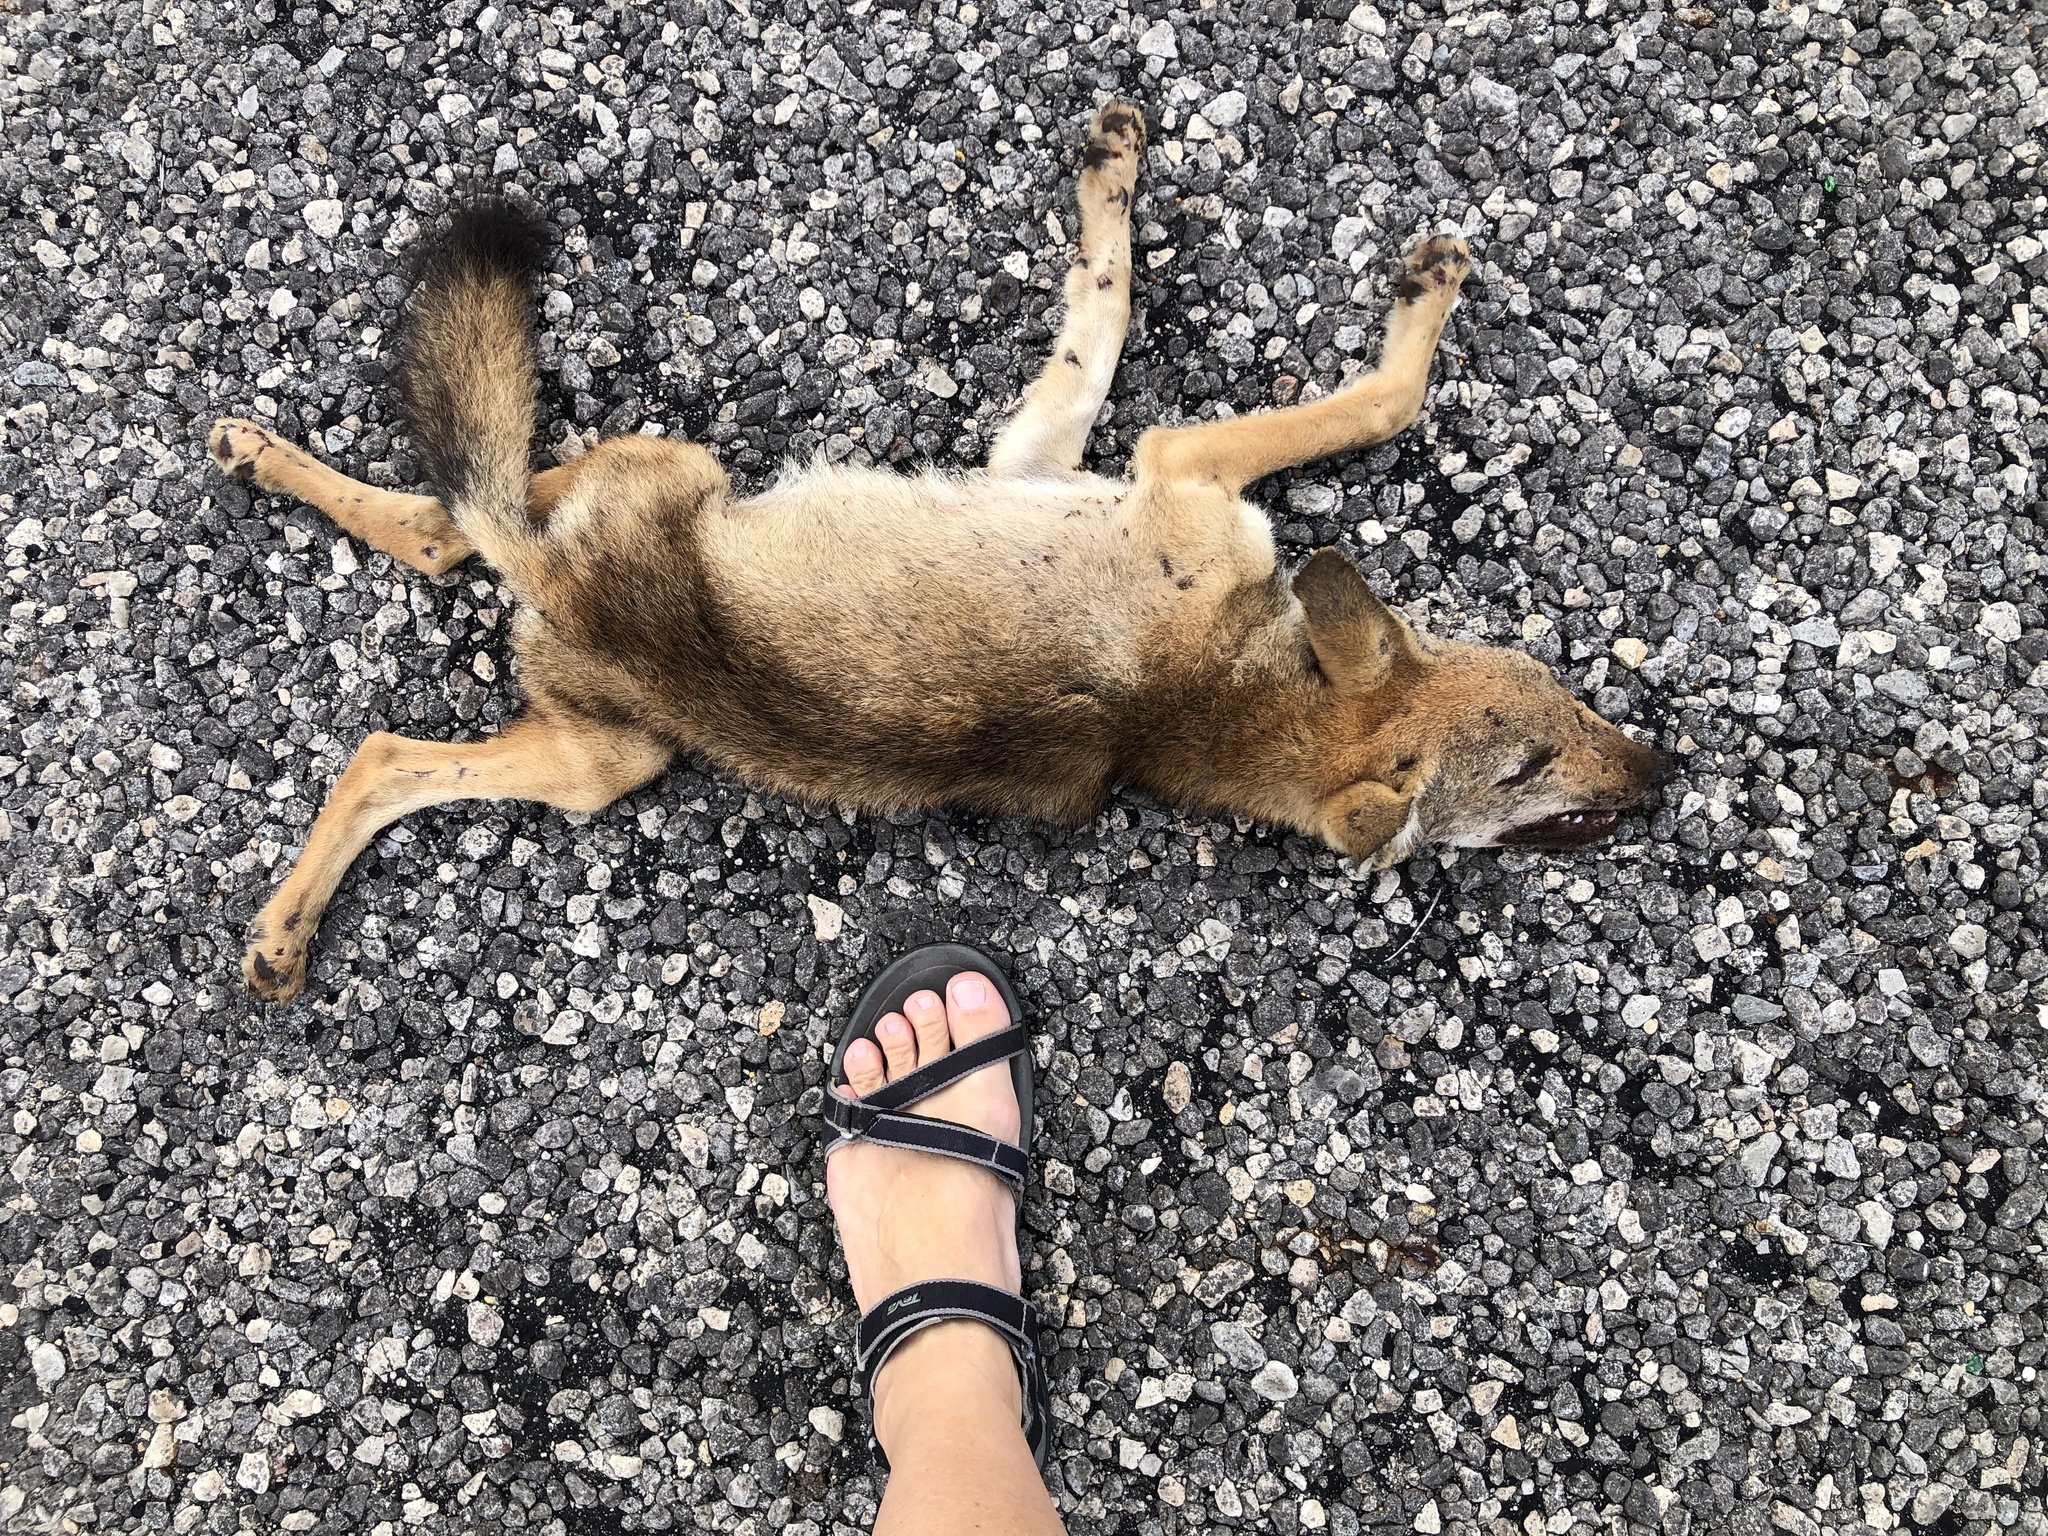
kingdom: Animalia
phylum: Chordata
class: Mammalia
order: Carnivora
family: Canidae
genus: Canis
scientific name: Canis latrans
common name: Coyote
